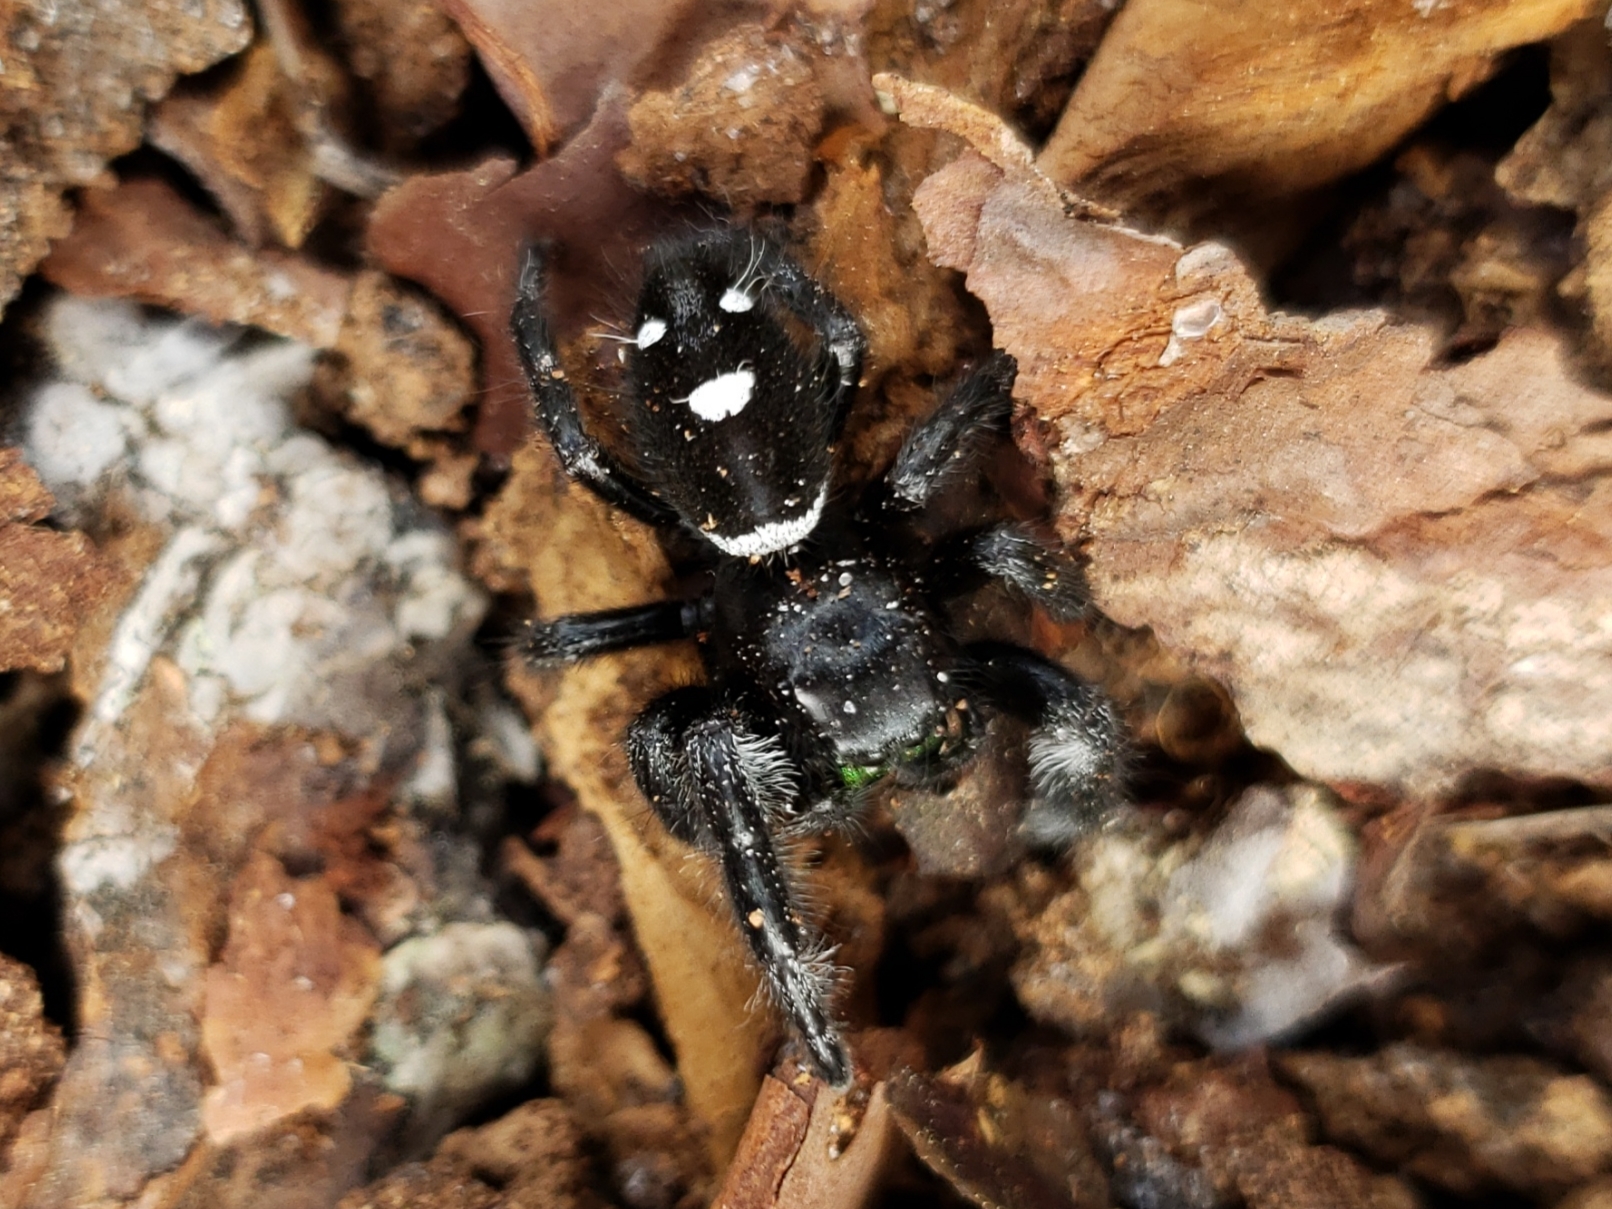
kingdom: Animalia
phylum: Arthropoda
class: Arachnida
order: Araneae
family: Salticidae
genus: Phidippus
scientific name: Phidippus regius
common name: Regal jumper
